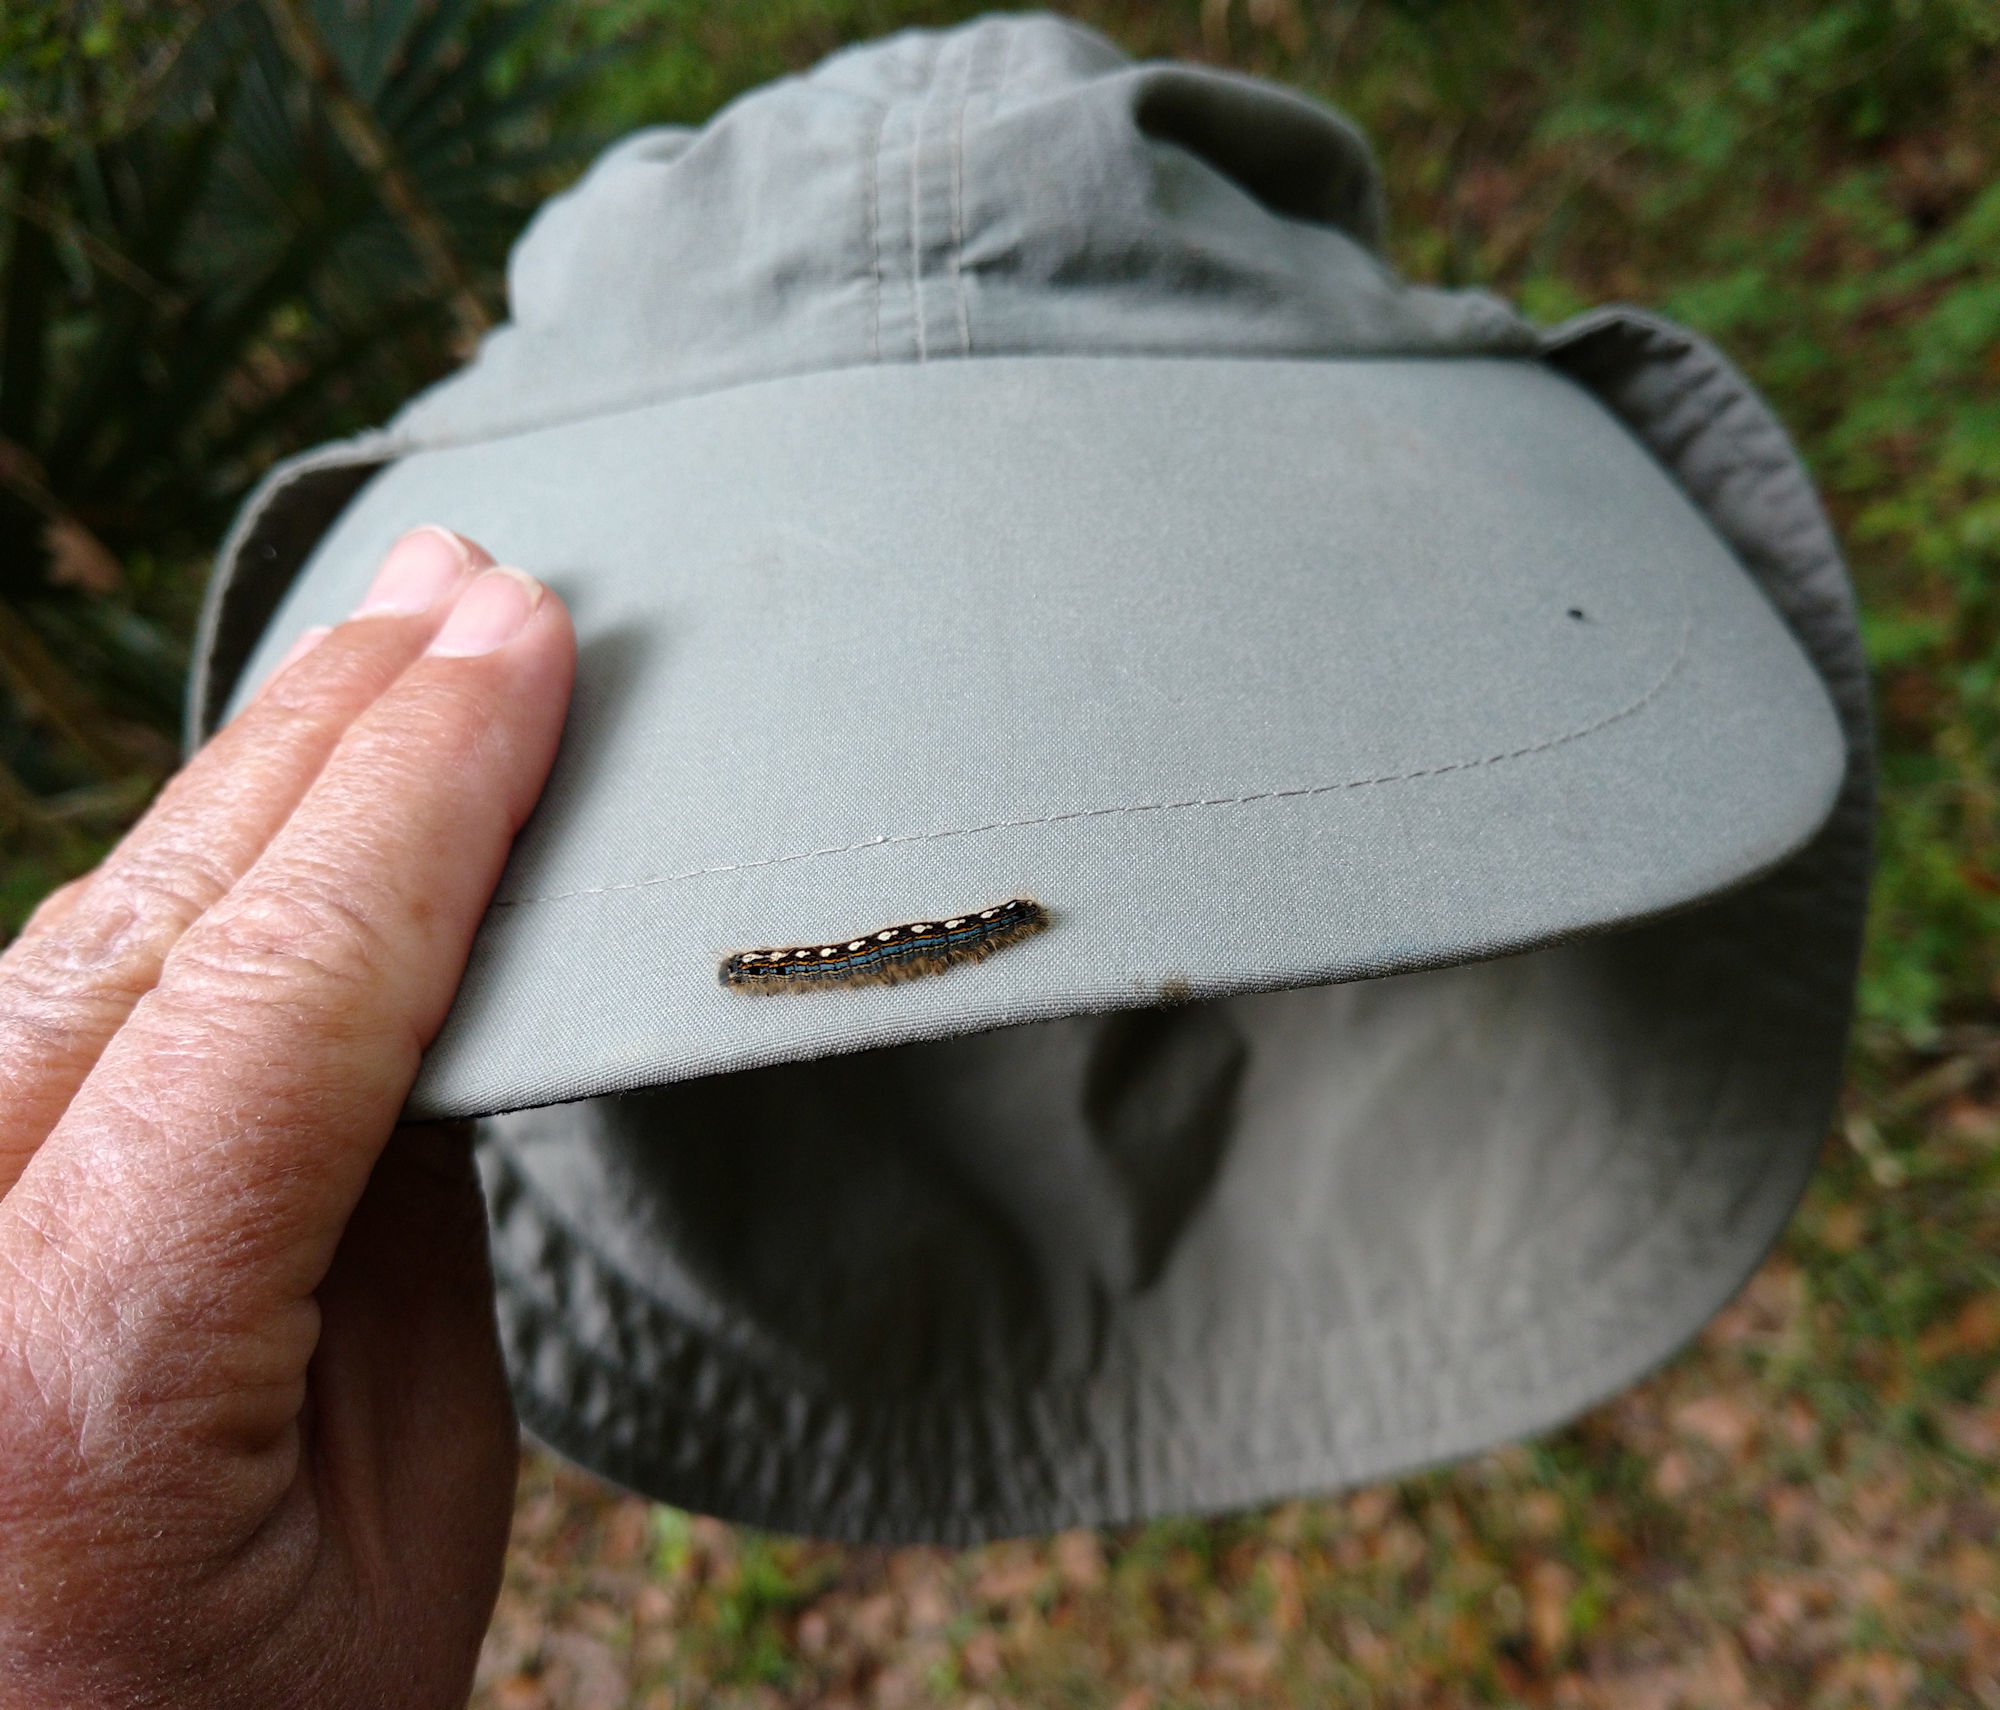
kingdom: Animalia
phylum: Arthropoda
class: Insecta
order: Lepidoptera
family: Lasiocampidae
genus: Malacosoma
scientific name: Malacosoma disstria
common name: Forest tent caterpillar
